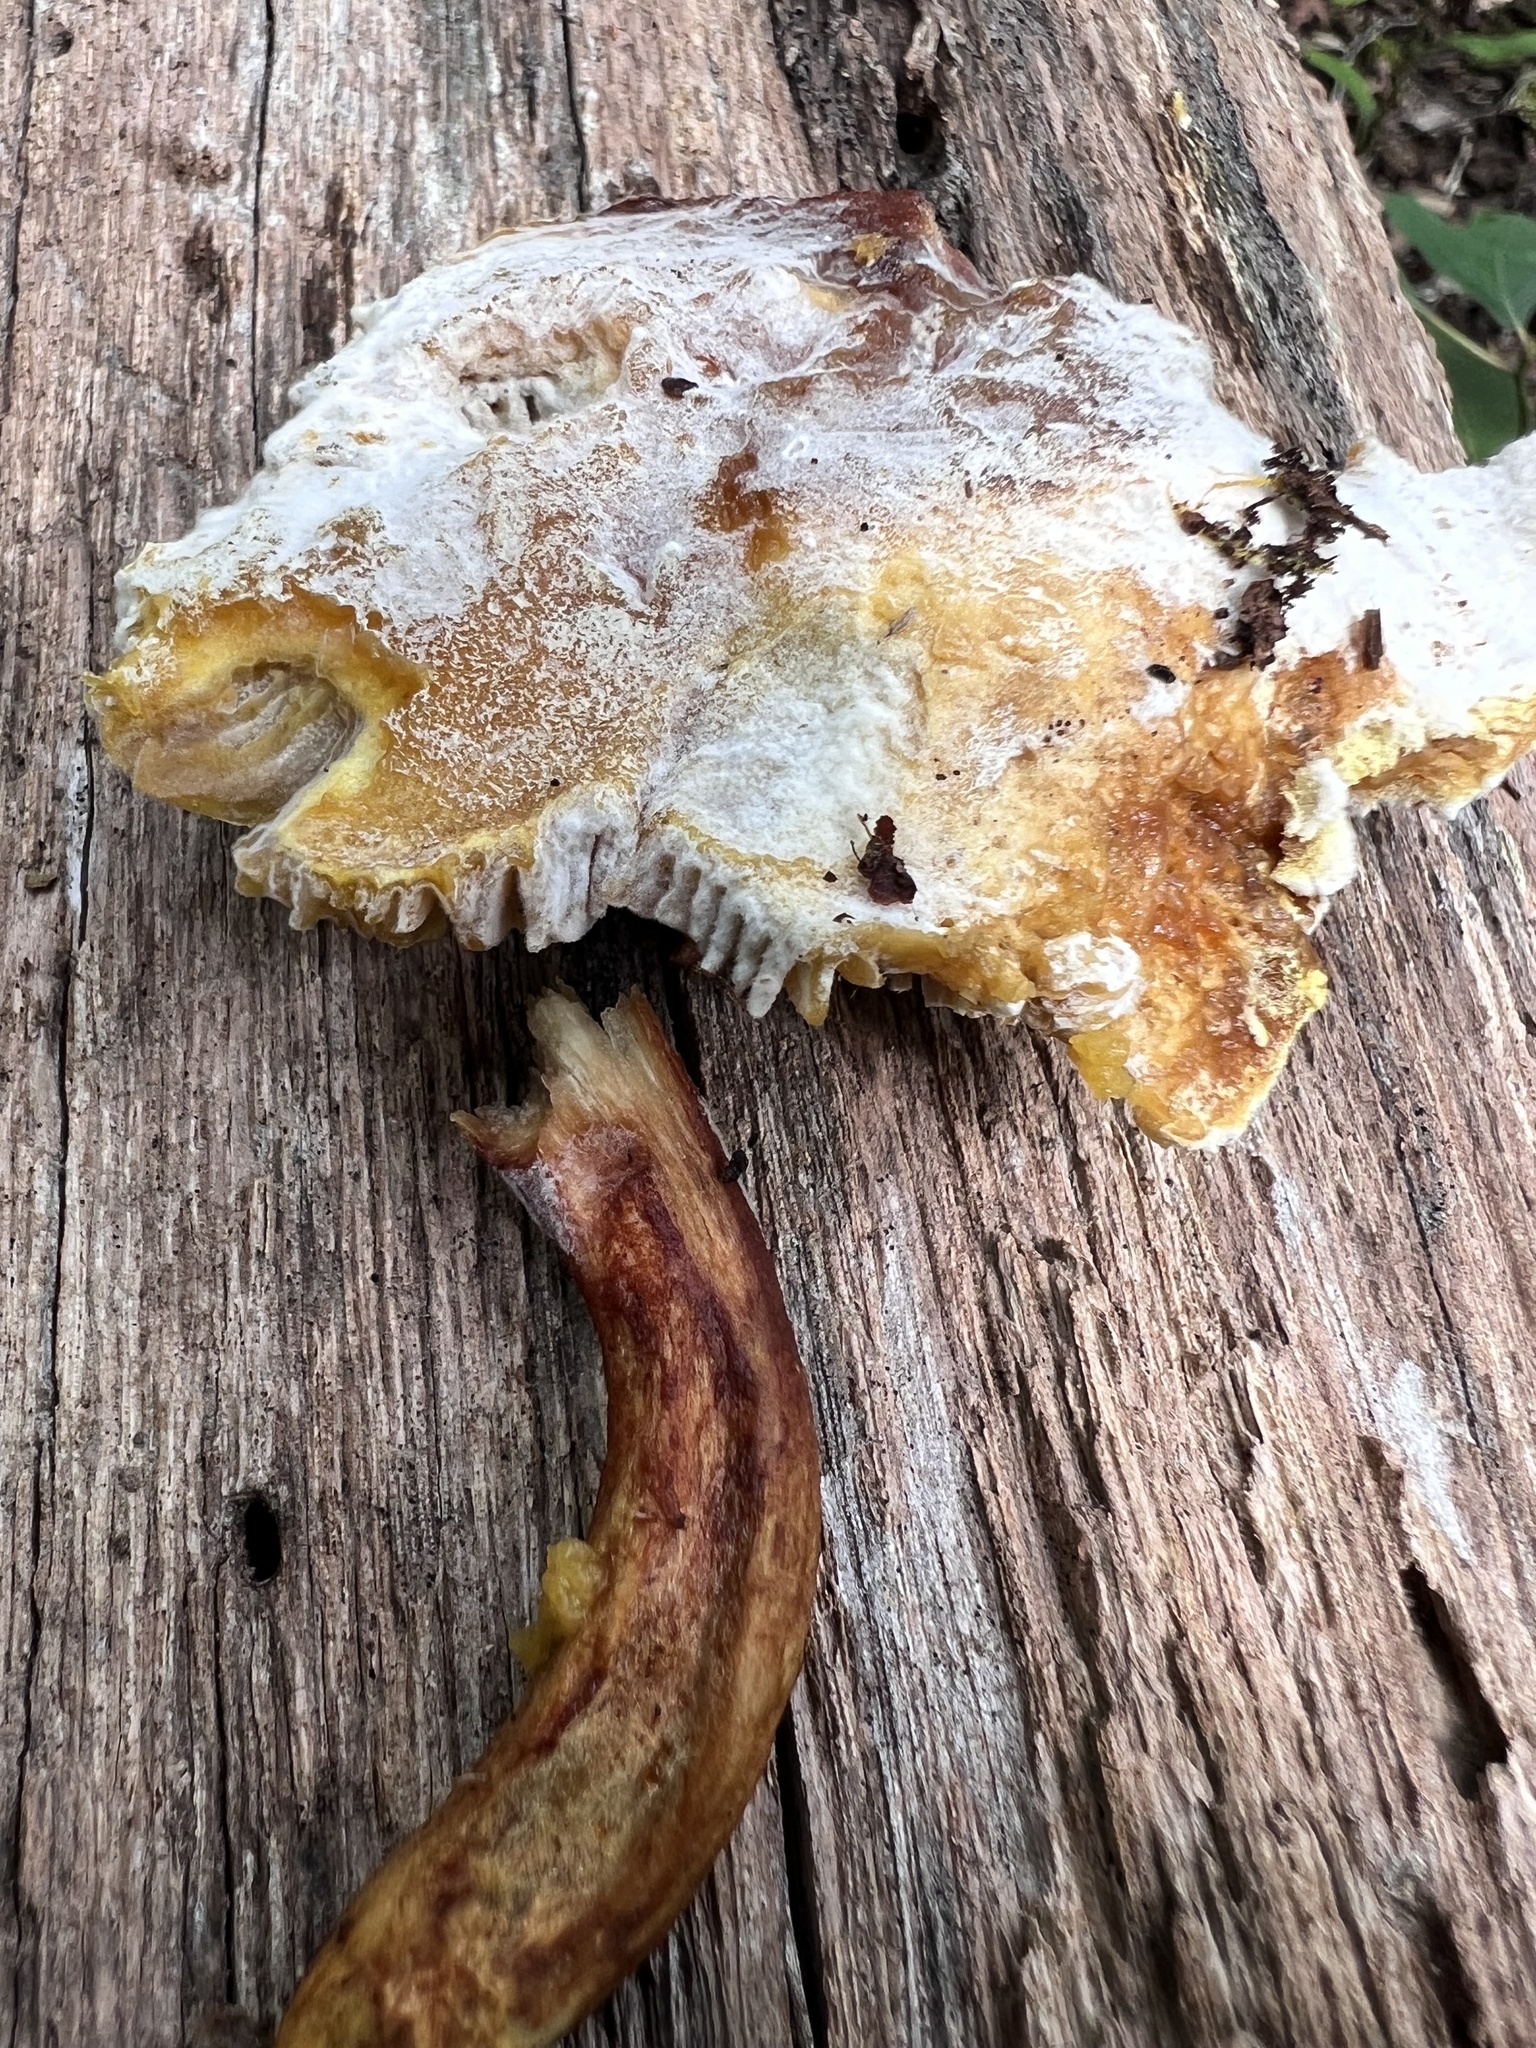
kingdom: Fungi
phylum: Ascomycota
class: Sordariomycetes
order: Hypocreales
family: Hypocreaceae
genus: Hypomyces
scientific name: Hypomyces chrysospermus
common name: Bolete mould
